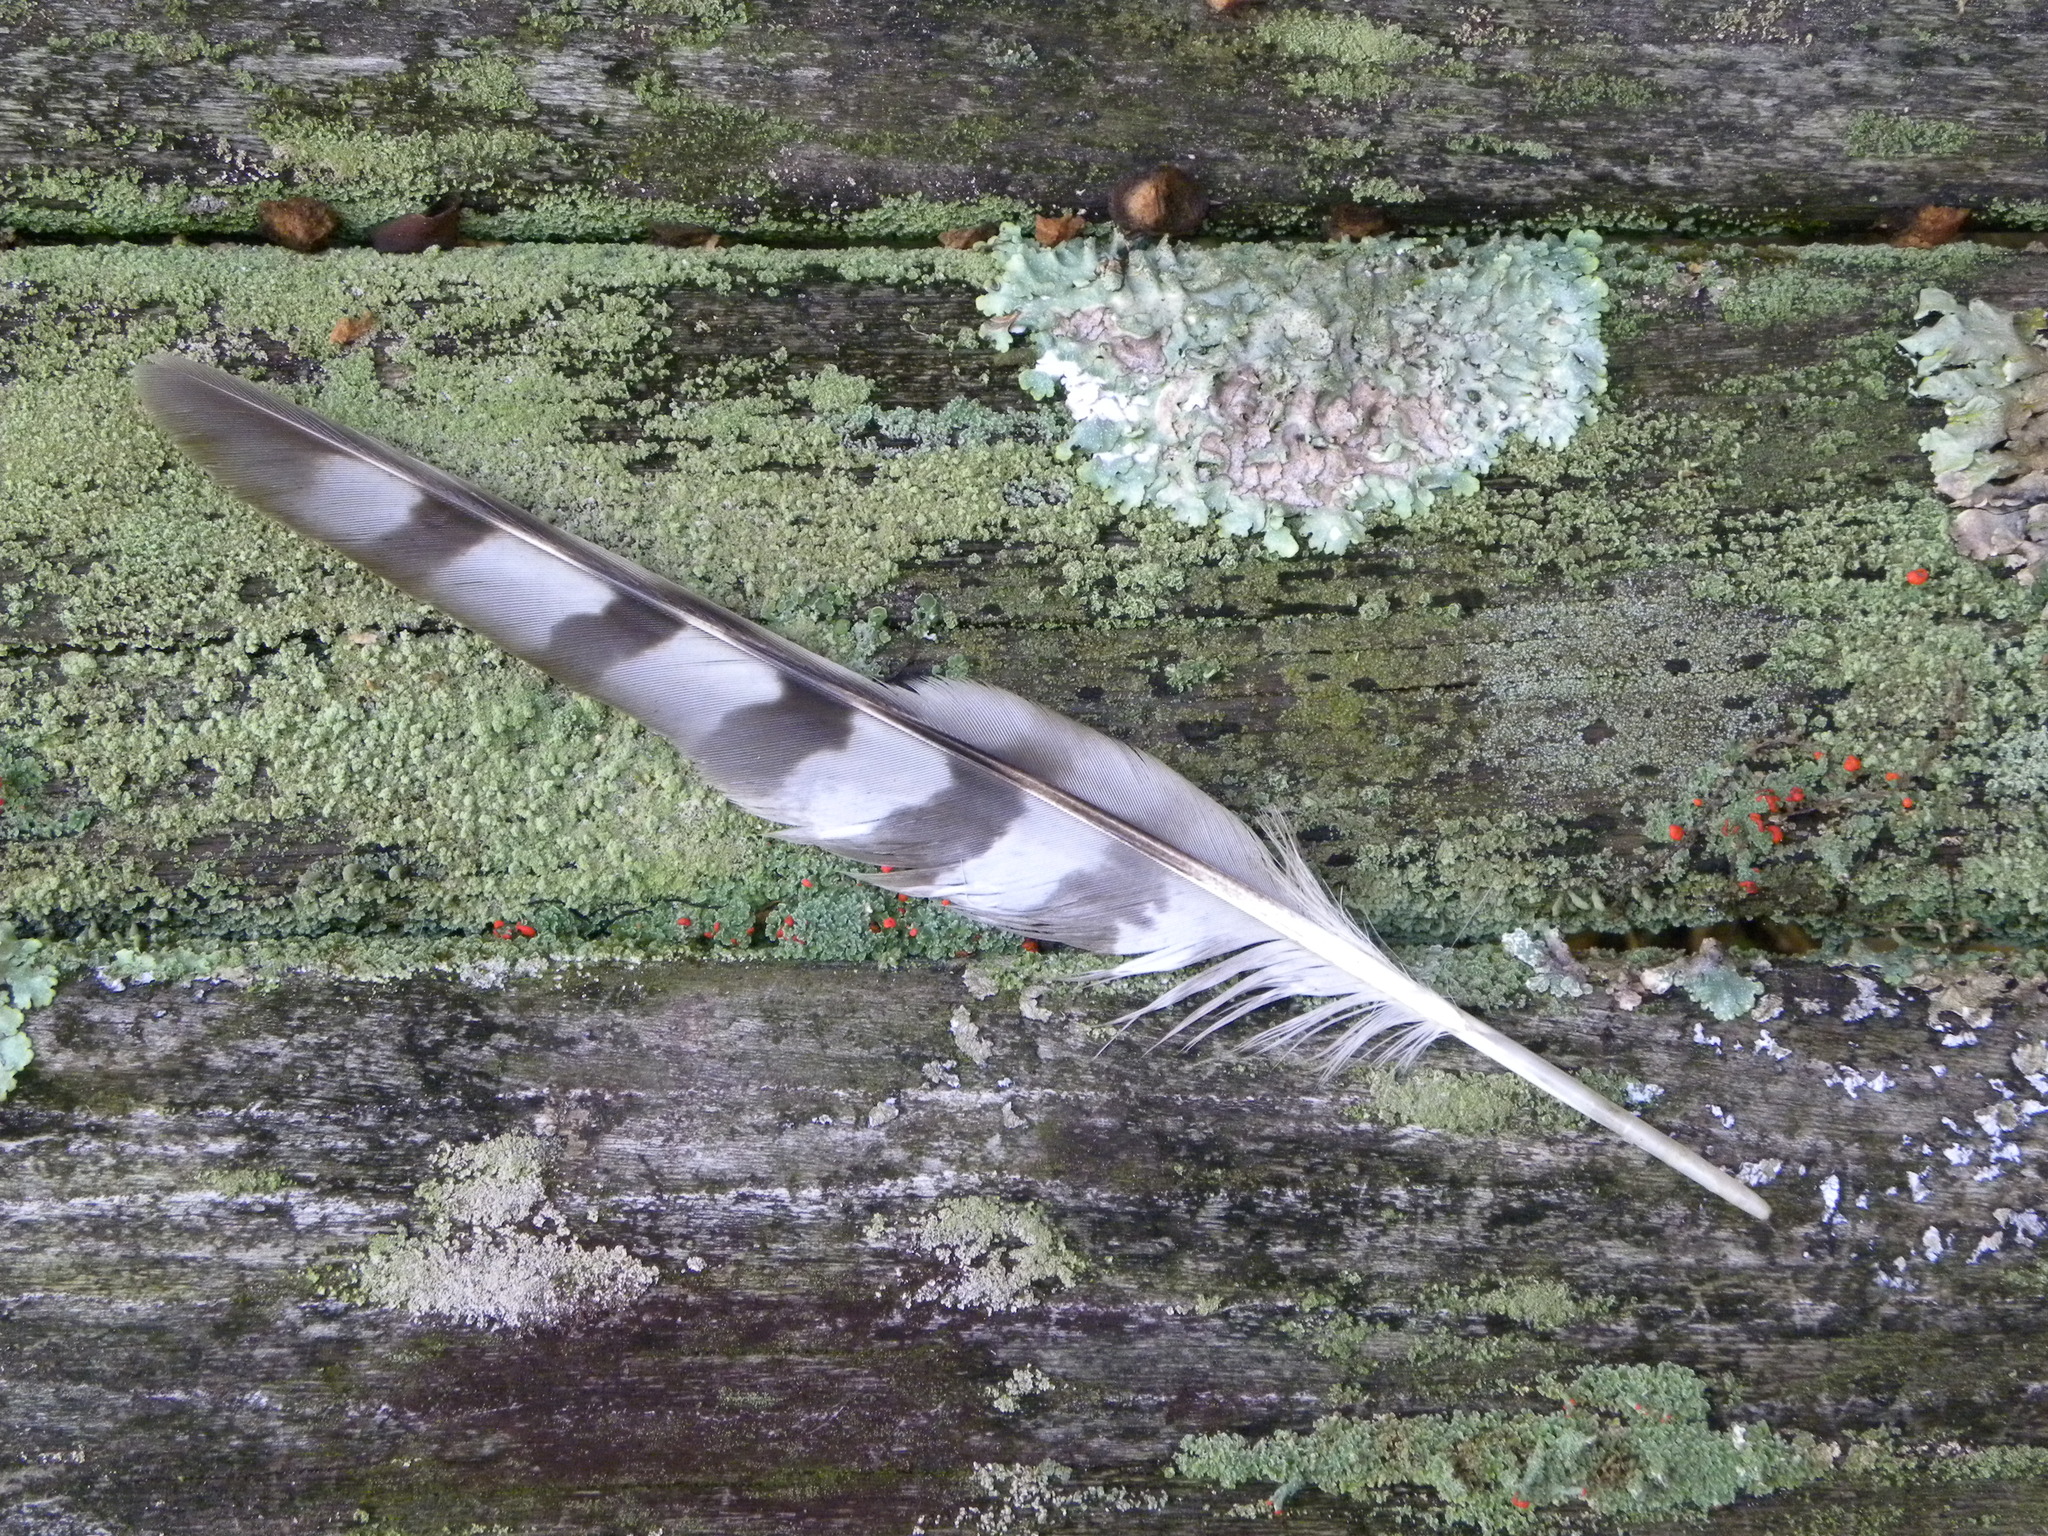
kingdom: Animalia
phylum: Chordata
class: Aves
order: Accipitriformes
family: Accipitridae
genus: Accipiter
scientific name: Accipiter cooperii
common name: Cooper's hawk
